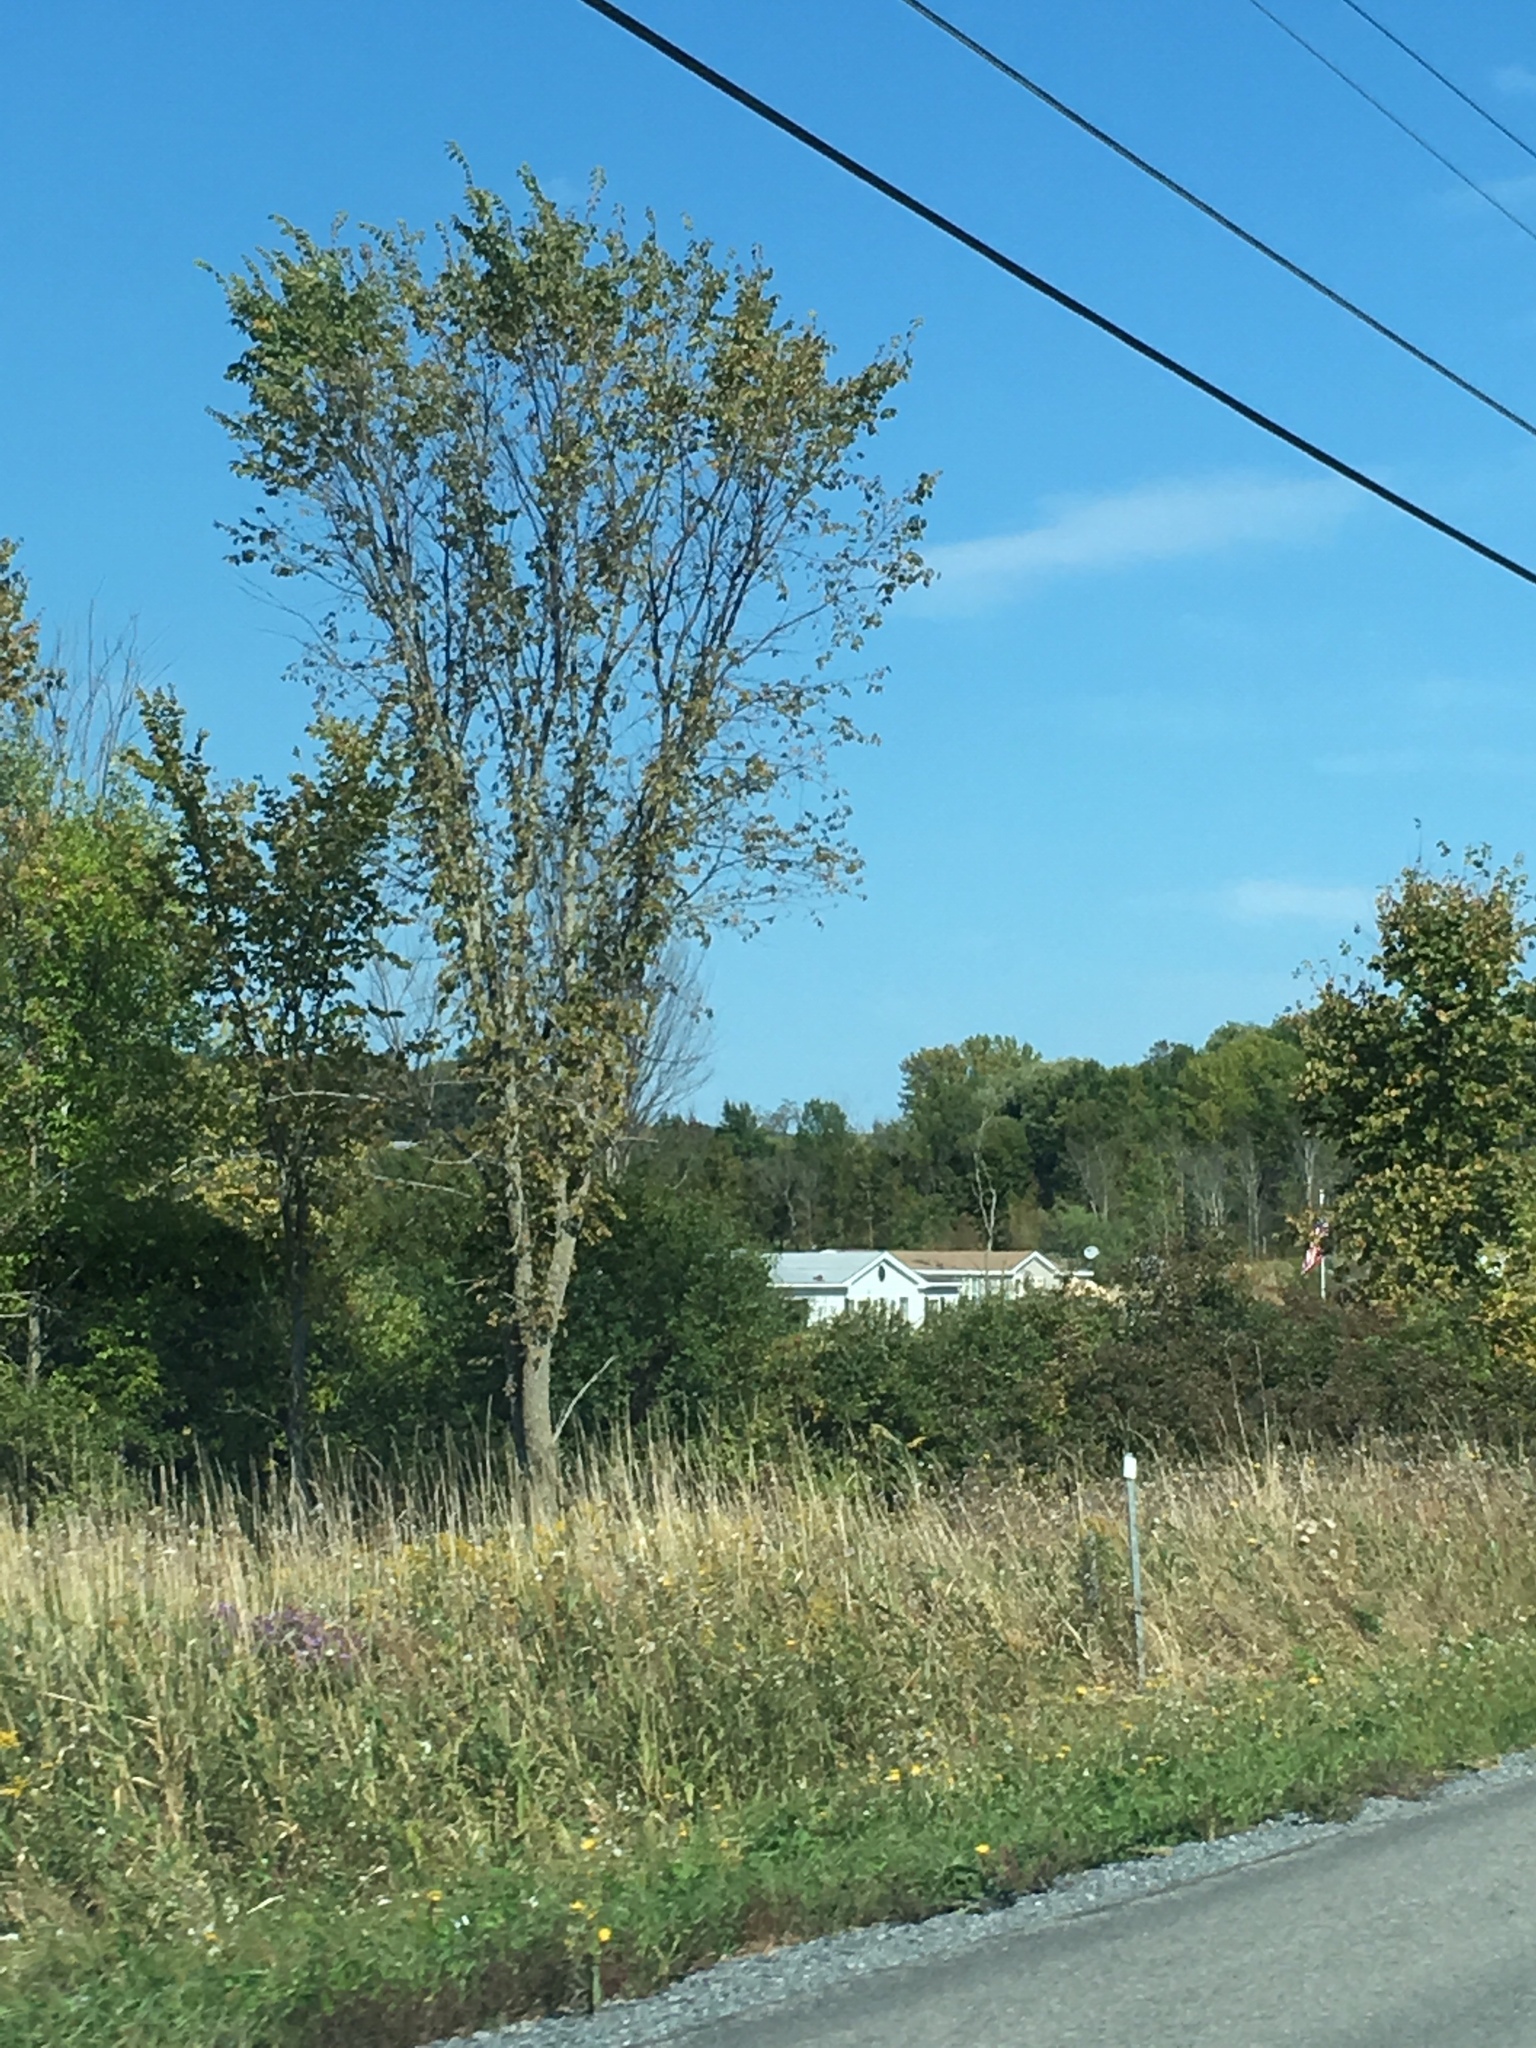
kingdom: Plantae
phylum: Tracheophyta
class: Magnoliopsida
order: Rosales
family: Ulmaceae
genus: Ulmus
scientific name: Ulmus americana
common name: American elm
